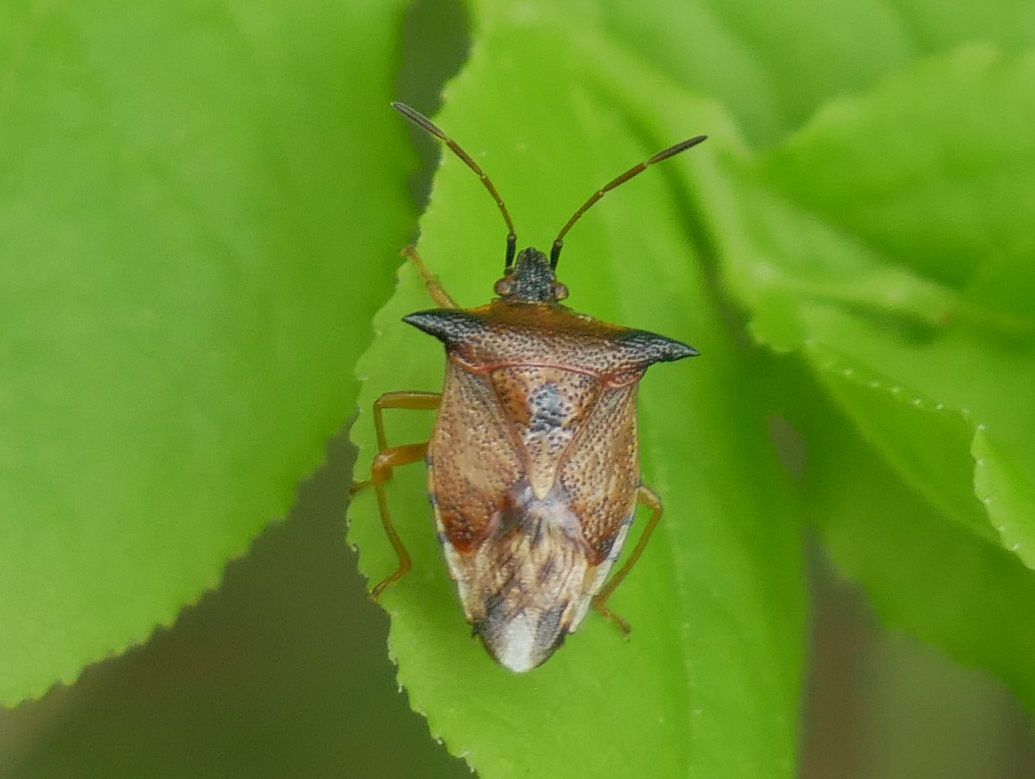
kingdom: Animalia
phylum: Arthropoda
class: Insecta
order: Hemiptera
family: Acanthosomatidae
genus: Elasmucha
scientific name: Elasmucha ferrugata
